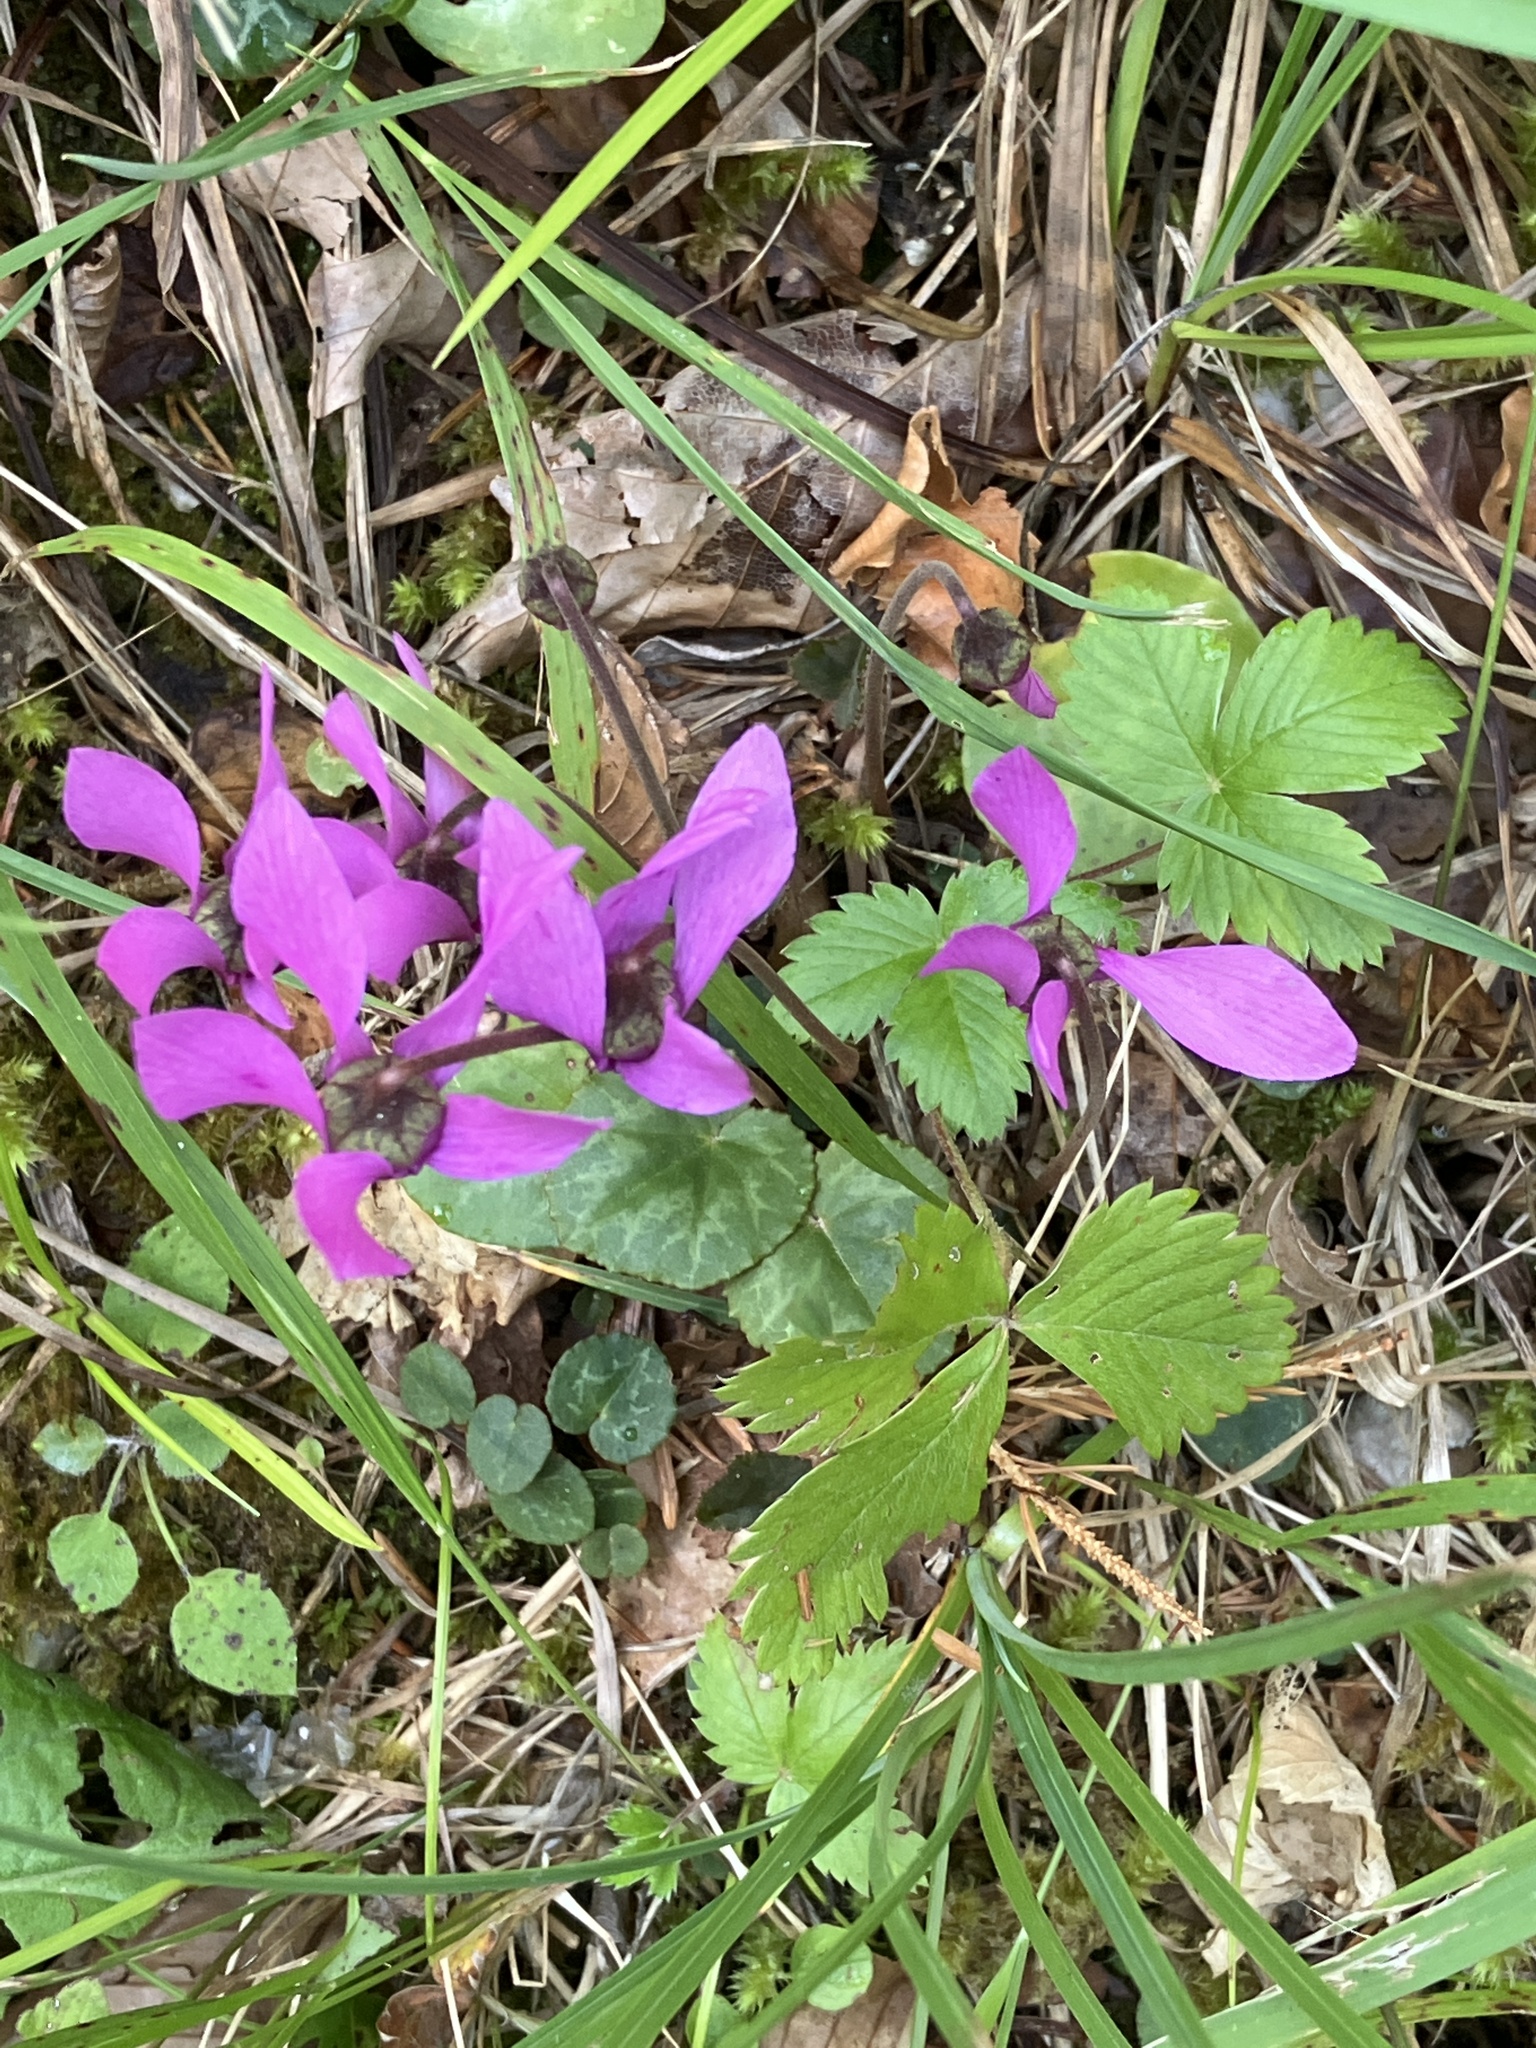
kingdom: Plantae
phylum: Tracheophyta
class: Magnoliopsida
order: Ericales
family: Primulaceae
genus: Cyclamen
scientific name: Cyclamen purpurascens
